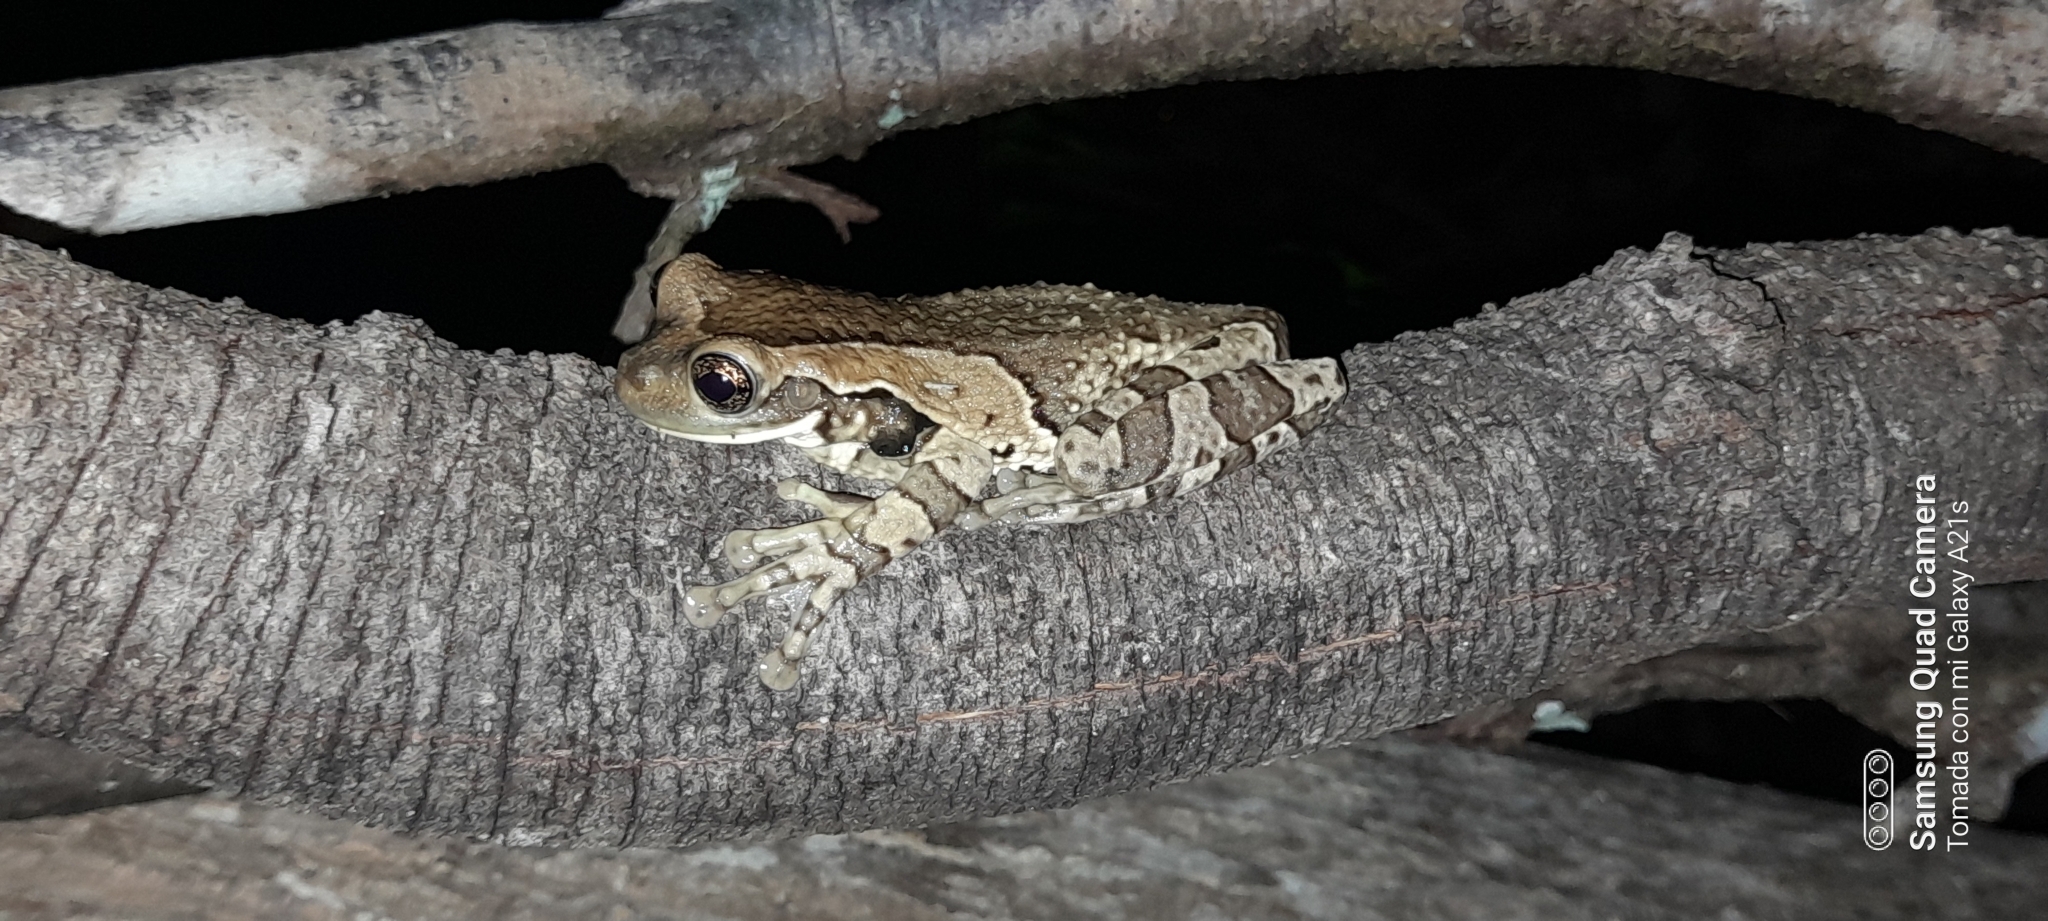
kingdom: Animalia
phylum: Chordata
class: Amphibia
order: Anura
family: Hylidae
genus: Trachycephalus
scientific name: Trachycephalus vermiculatus
